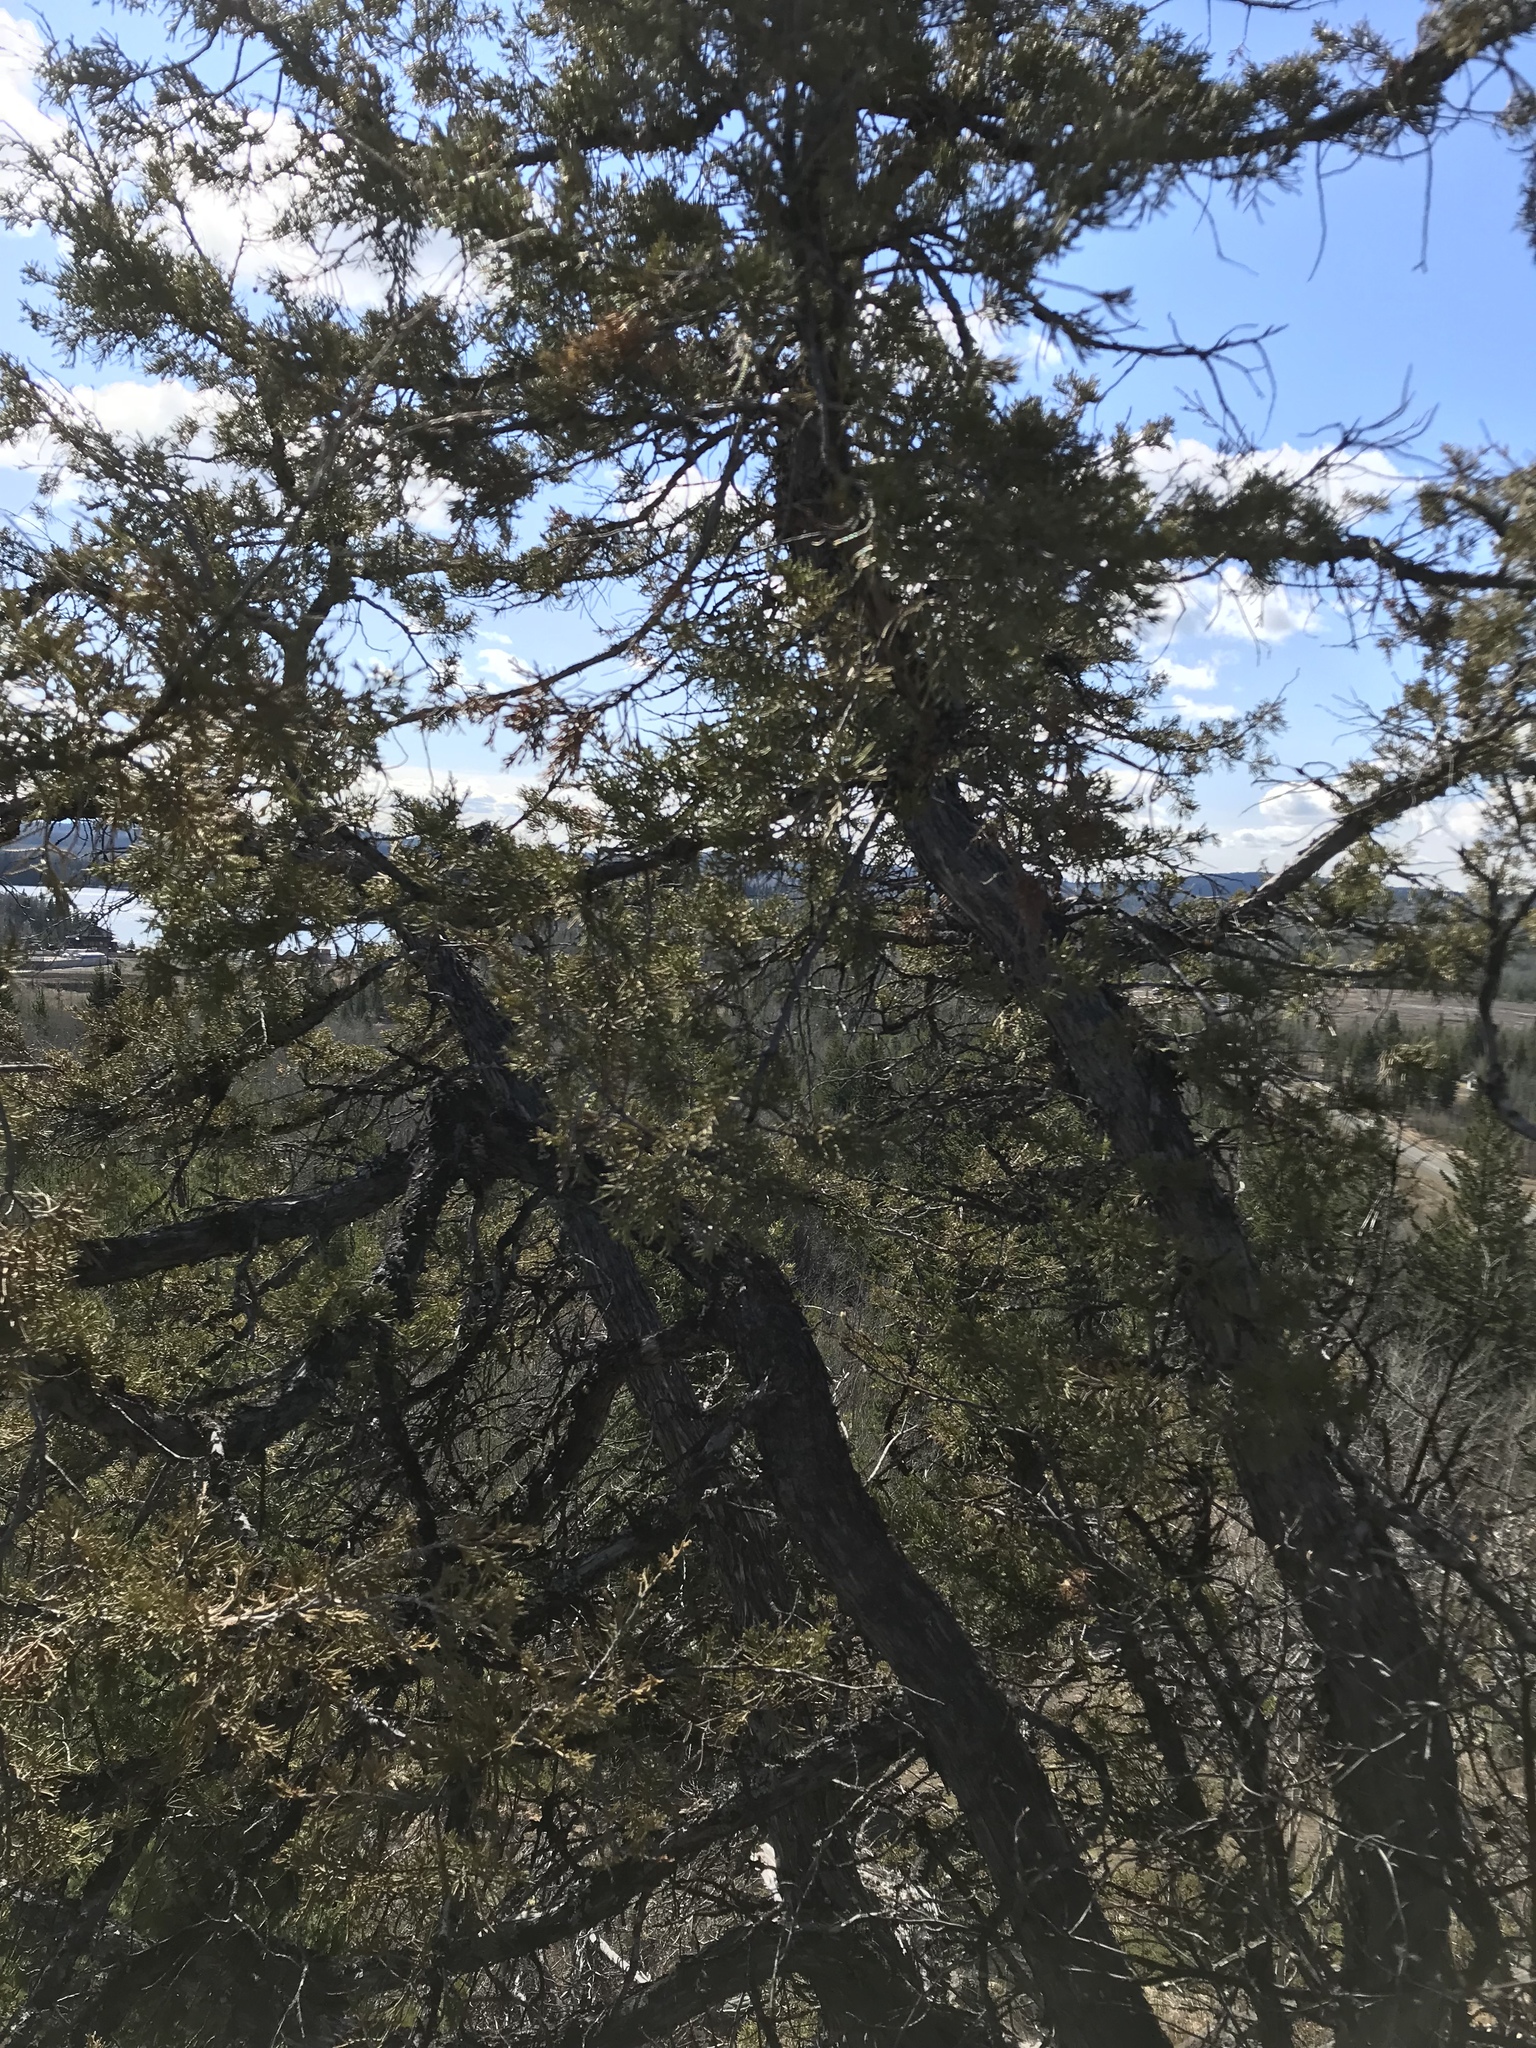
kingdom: Plantae
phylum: Tracheophyta
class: Pinopsida
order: Pinales
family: Cupressaceae
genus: Juniperus
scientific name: Juniperus scopulorum
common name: Rocky mountain juniper
